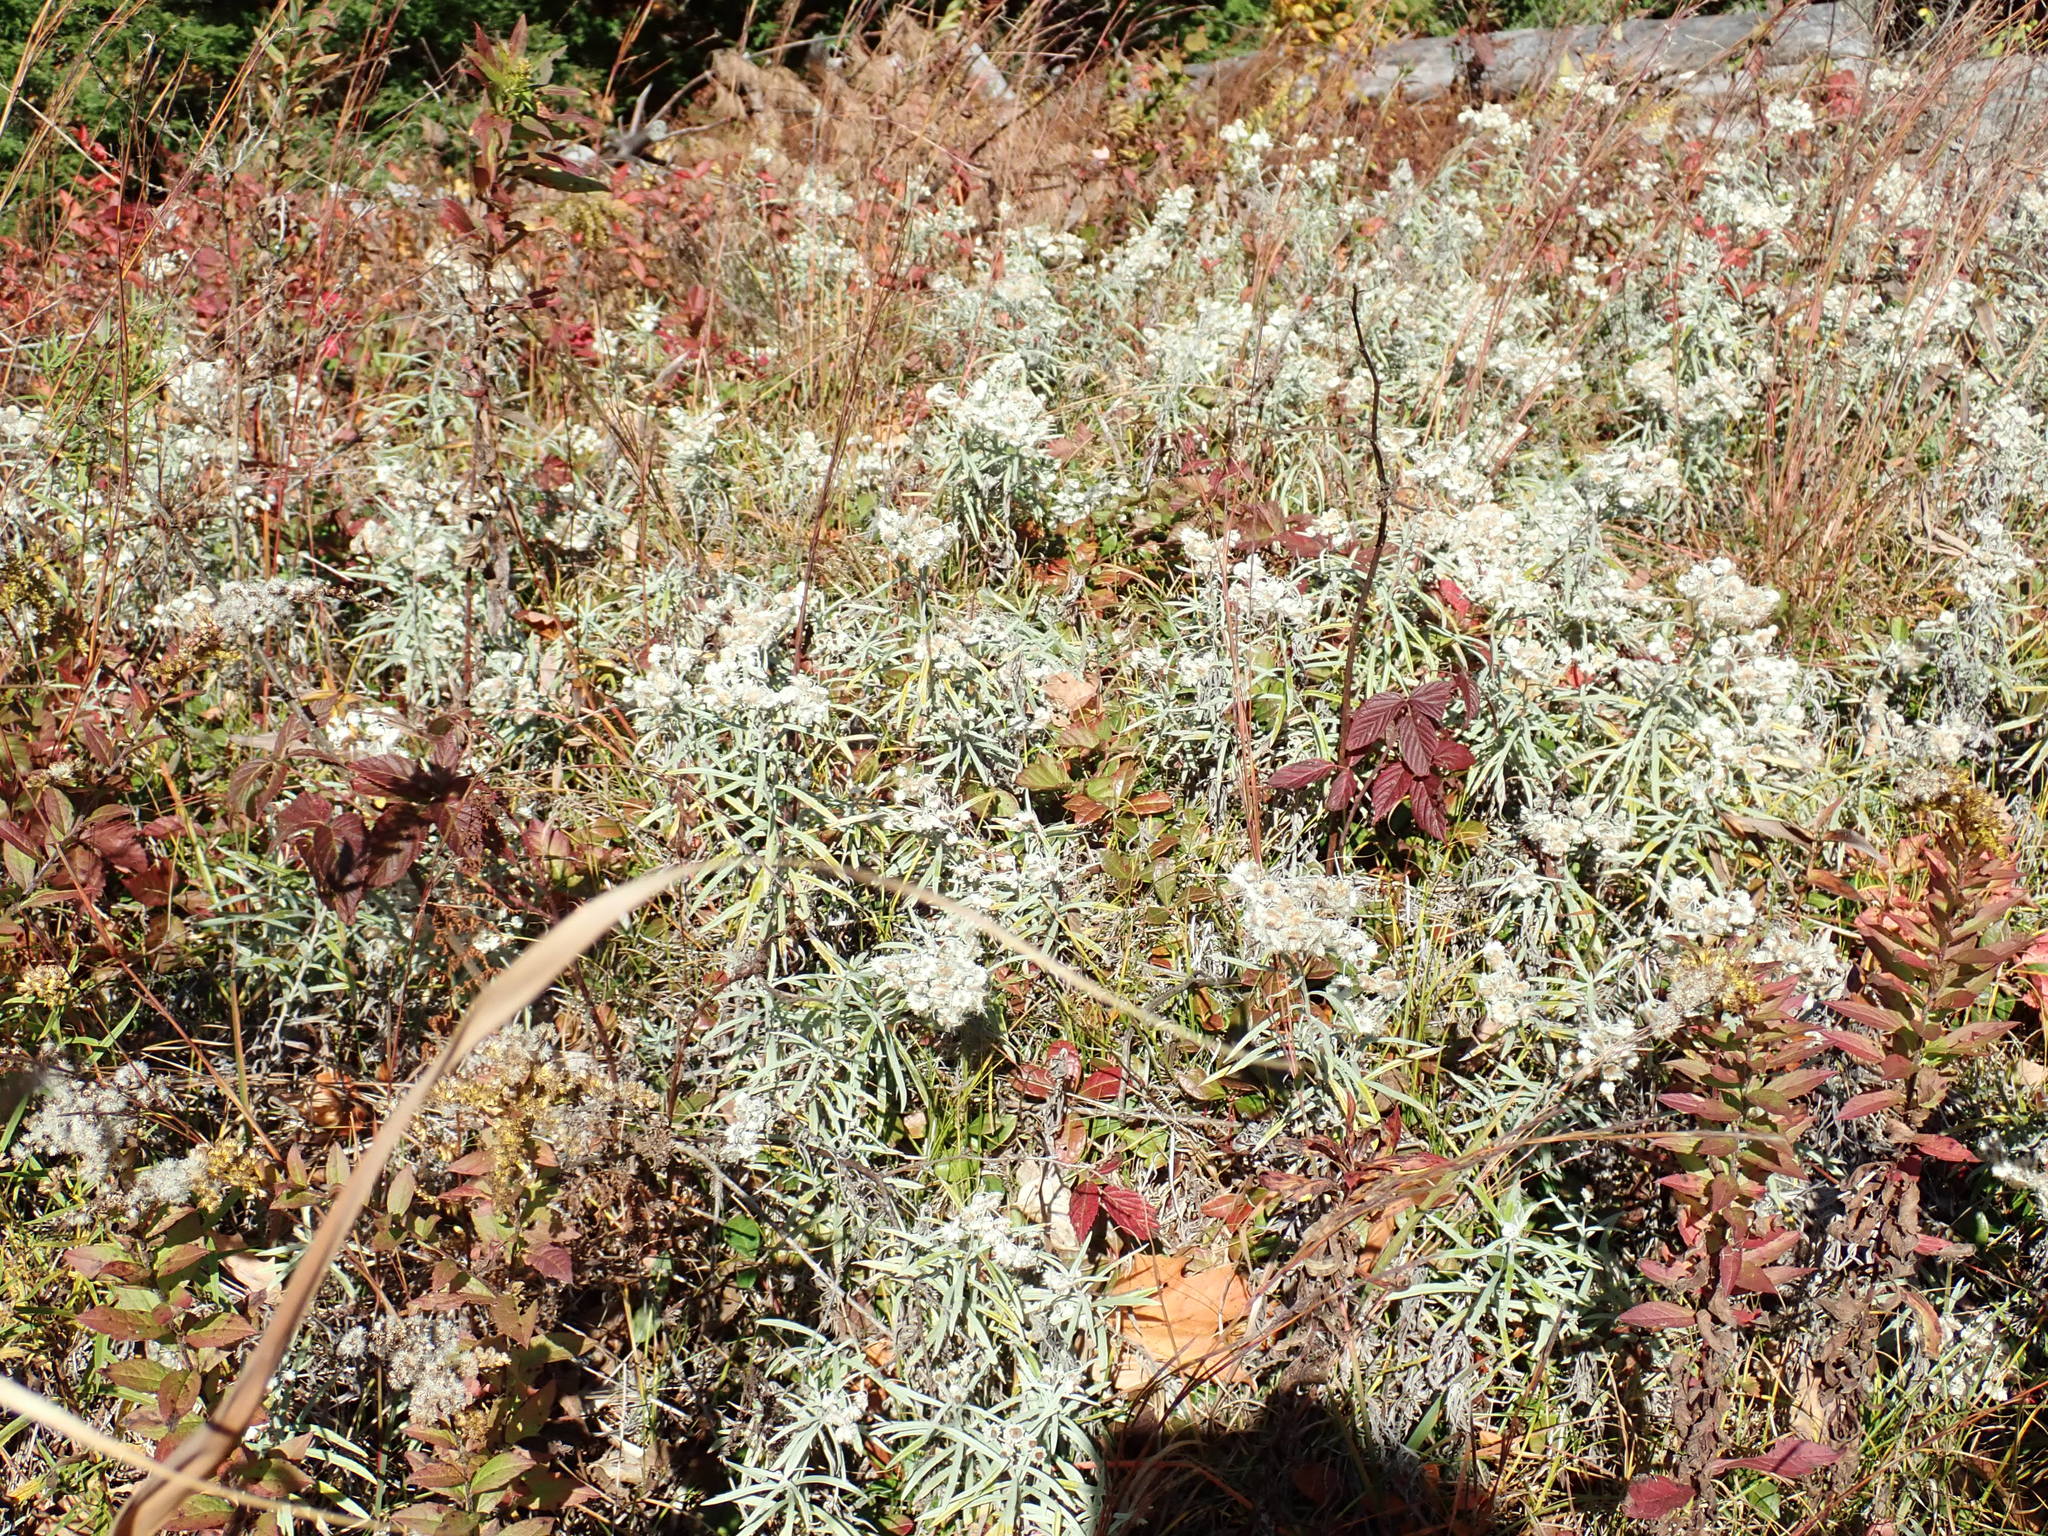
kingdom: Plantae
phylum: Tracheophyta
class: Magnoliopsida
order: Asterales
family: Asteraceae
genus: Anaphalis
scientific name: Anaphalis margaritacea
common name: Pearly everlasting
